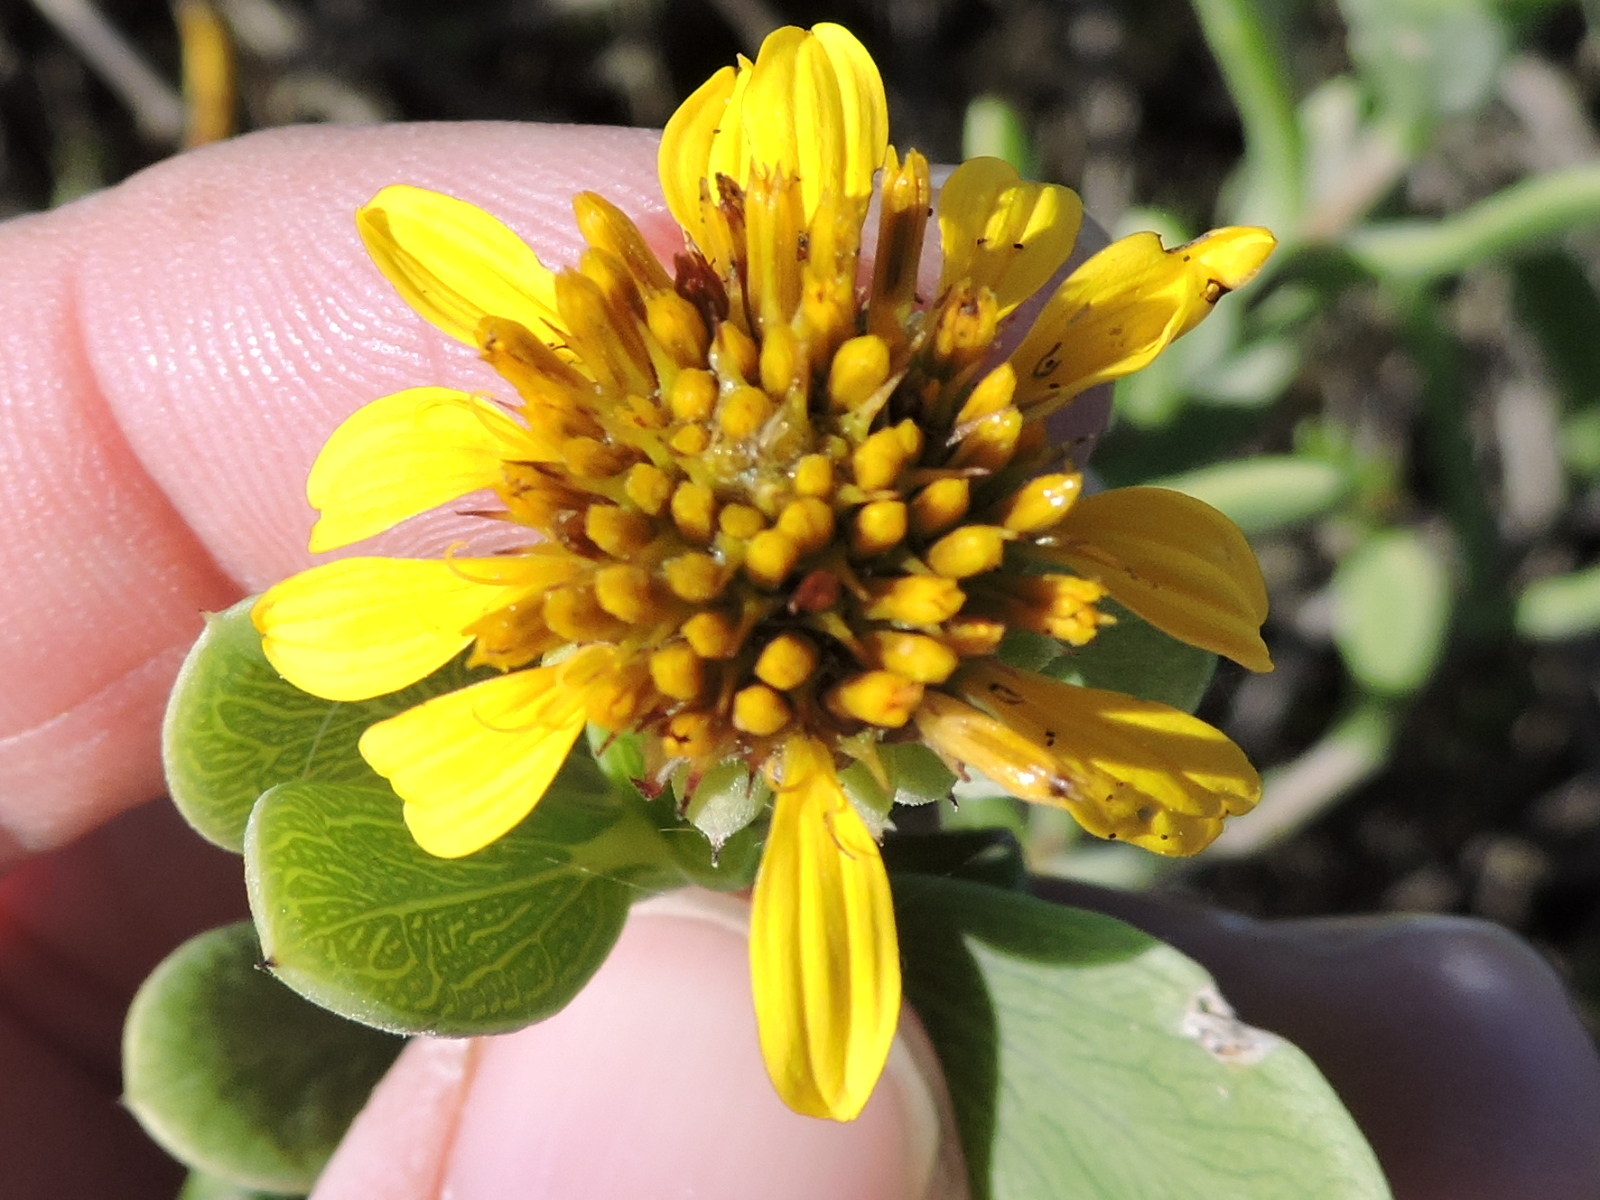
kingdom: Plantae
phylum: Tracheophyta
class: Magnoliopsida
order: Asterales
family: Asteraceae
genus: Borrichia
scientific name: Borrichia frutescens
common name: Sea oxeye
